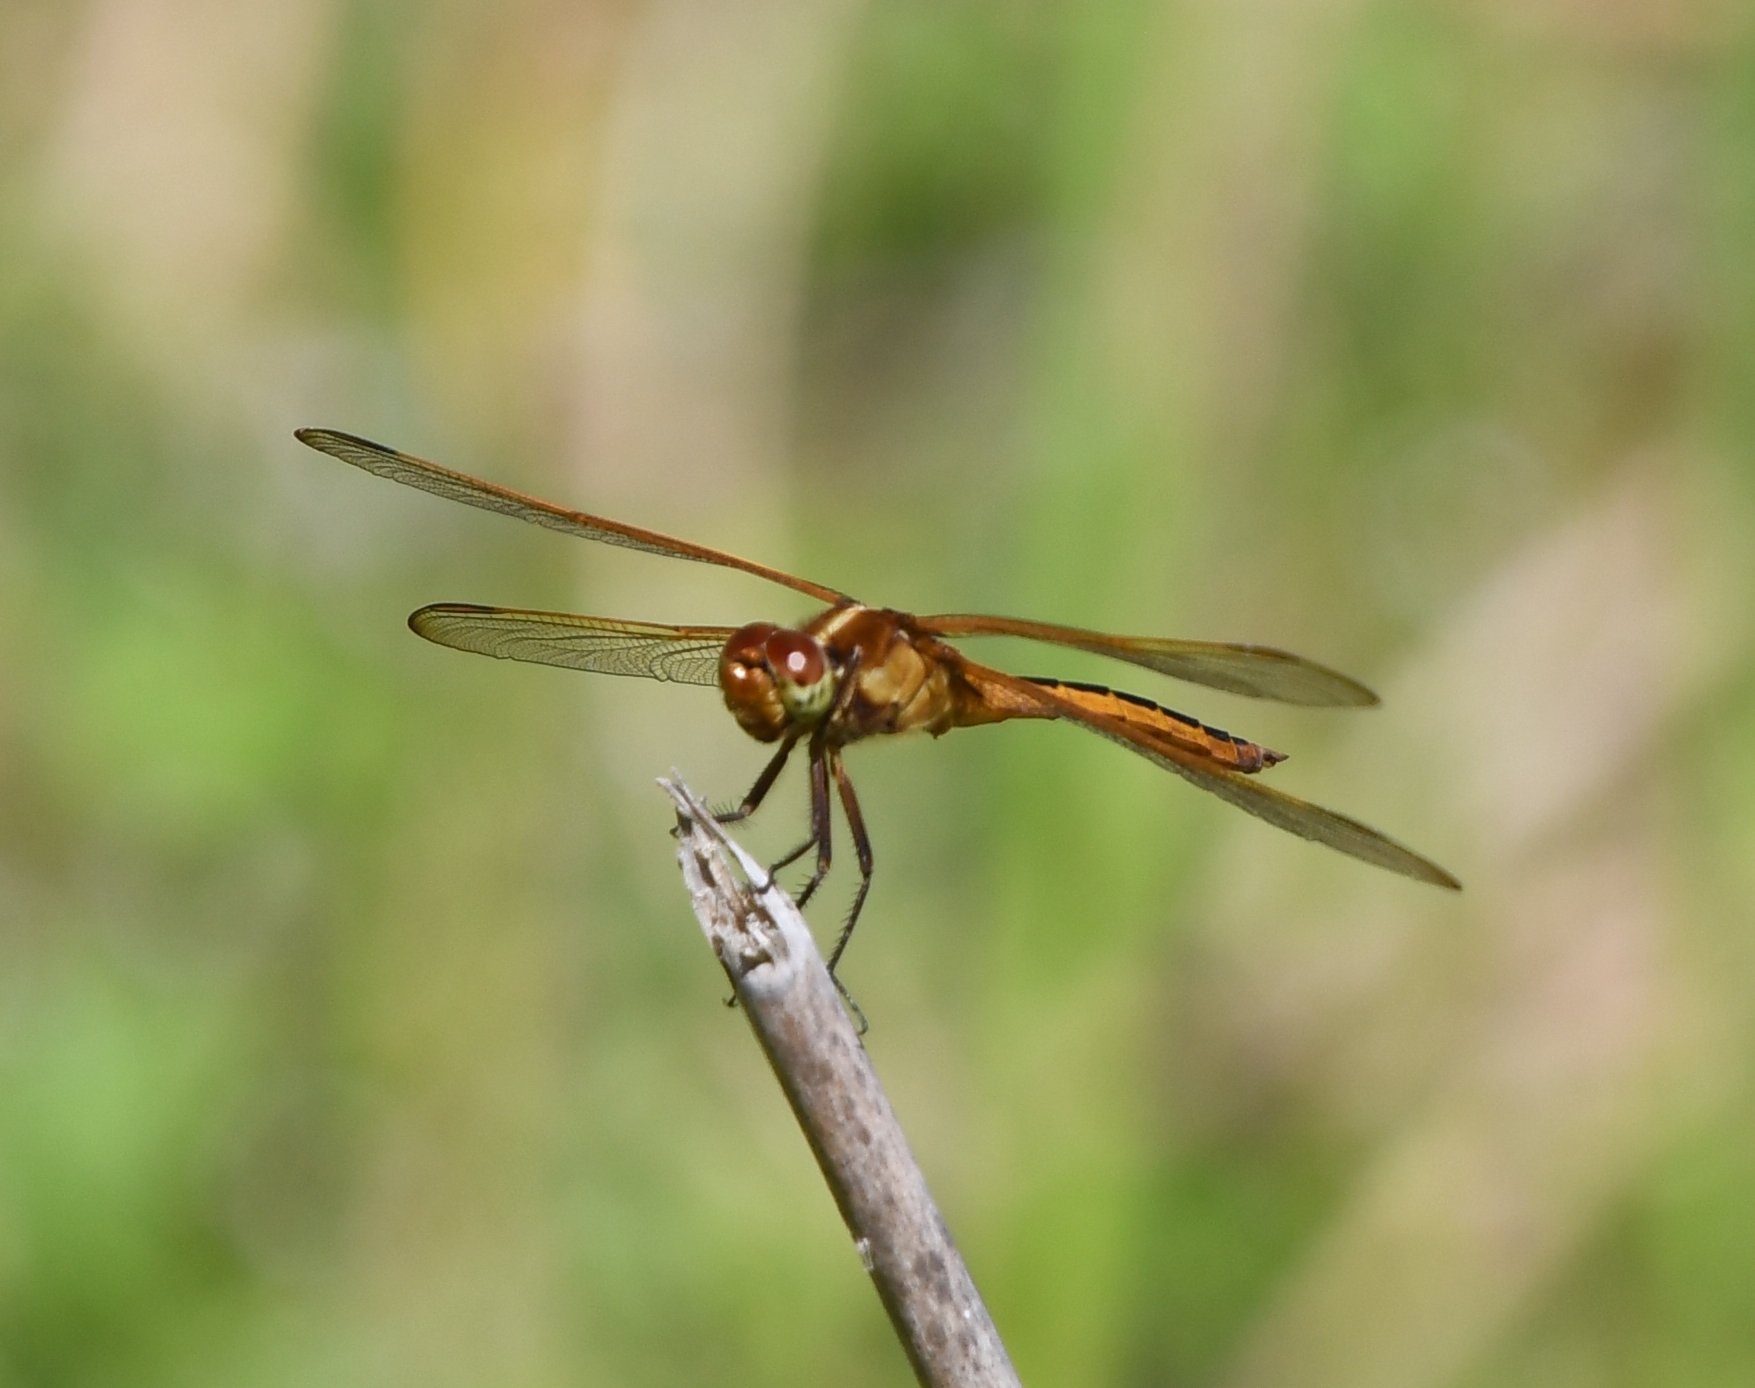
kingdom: Animalia
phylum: Arthropoda
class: Insecta
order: Odonata
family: Libellulidae
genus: Libellula
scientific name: Libellula needhami
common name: Needham's skimmer
